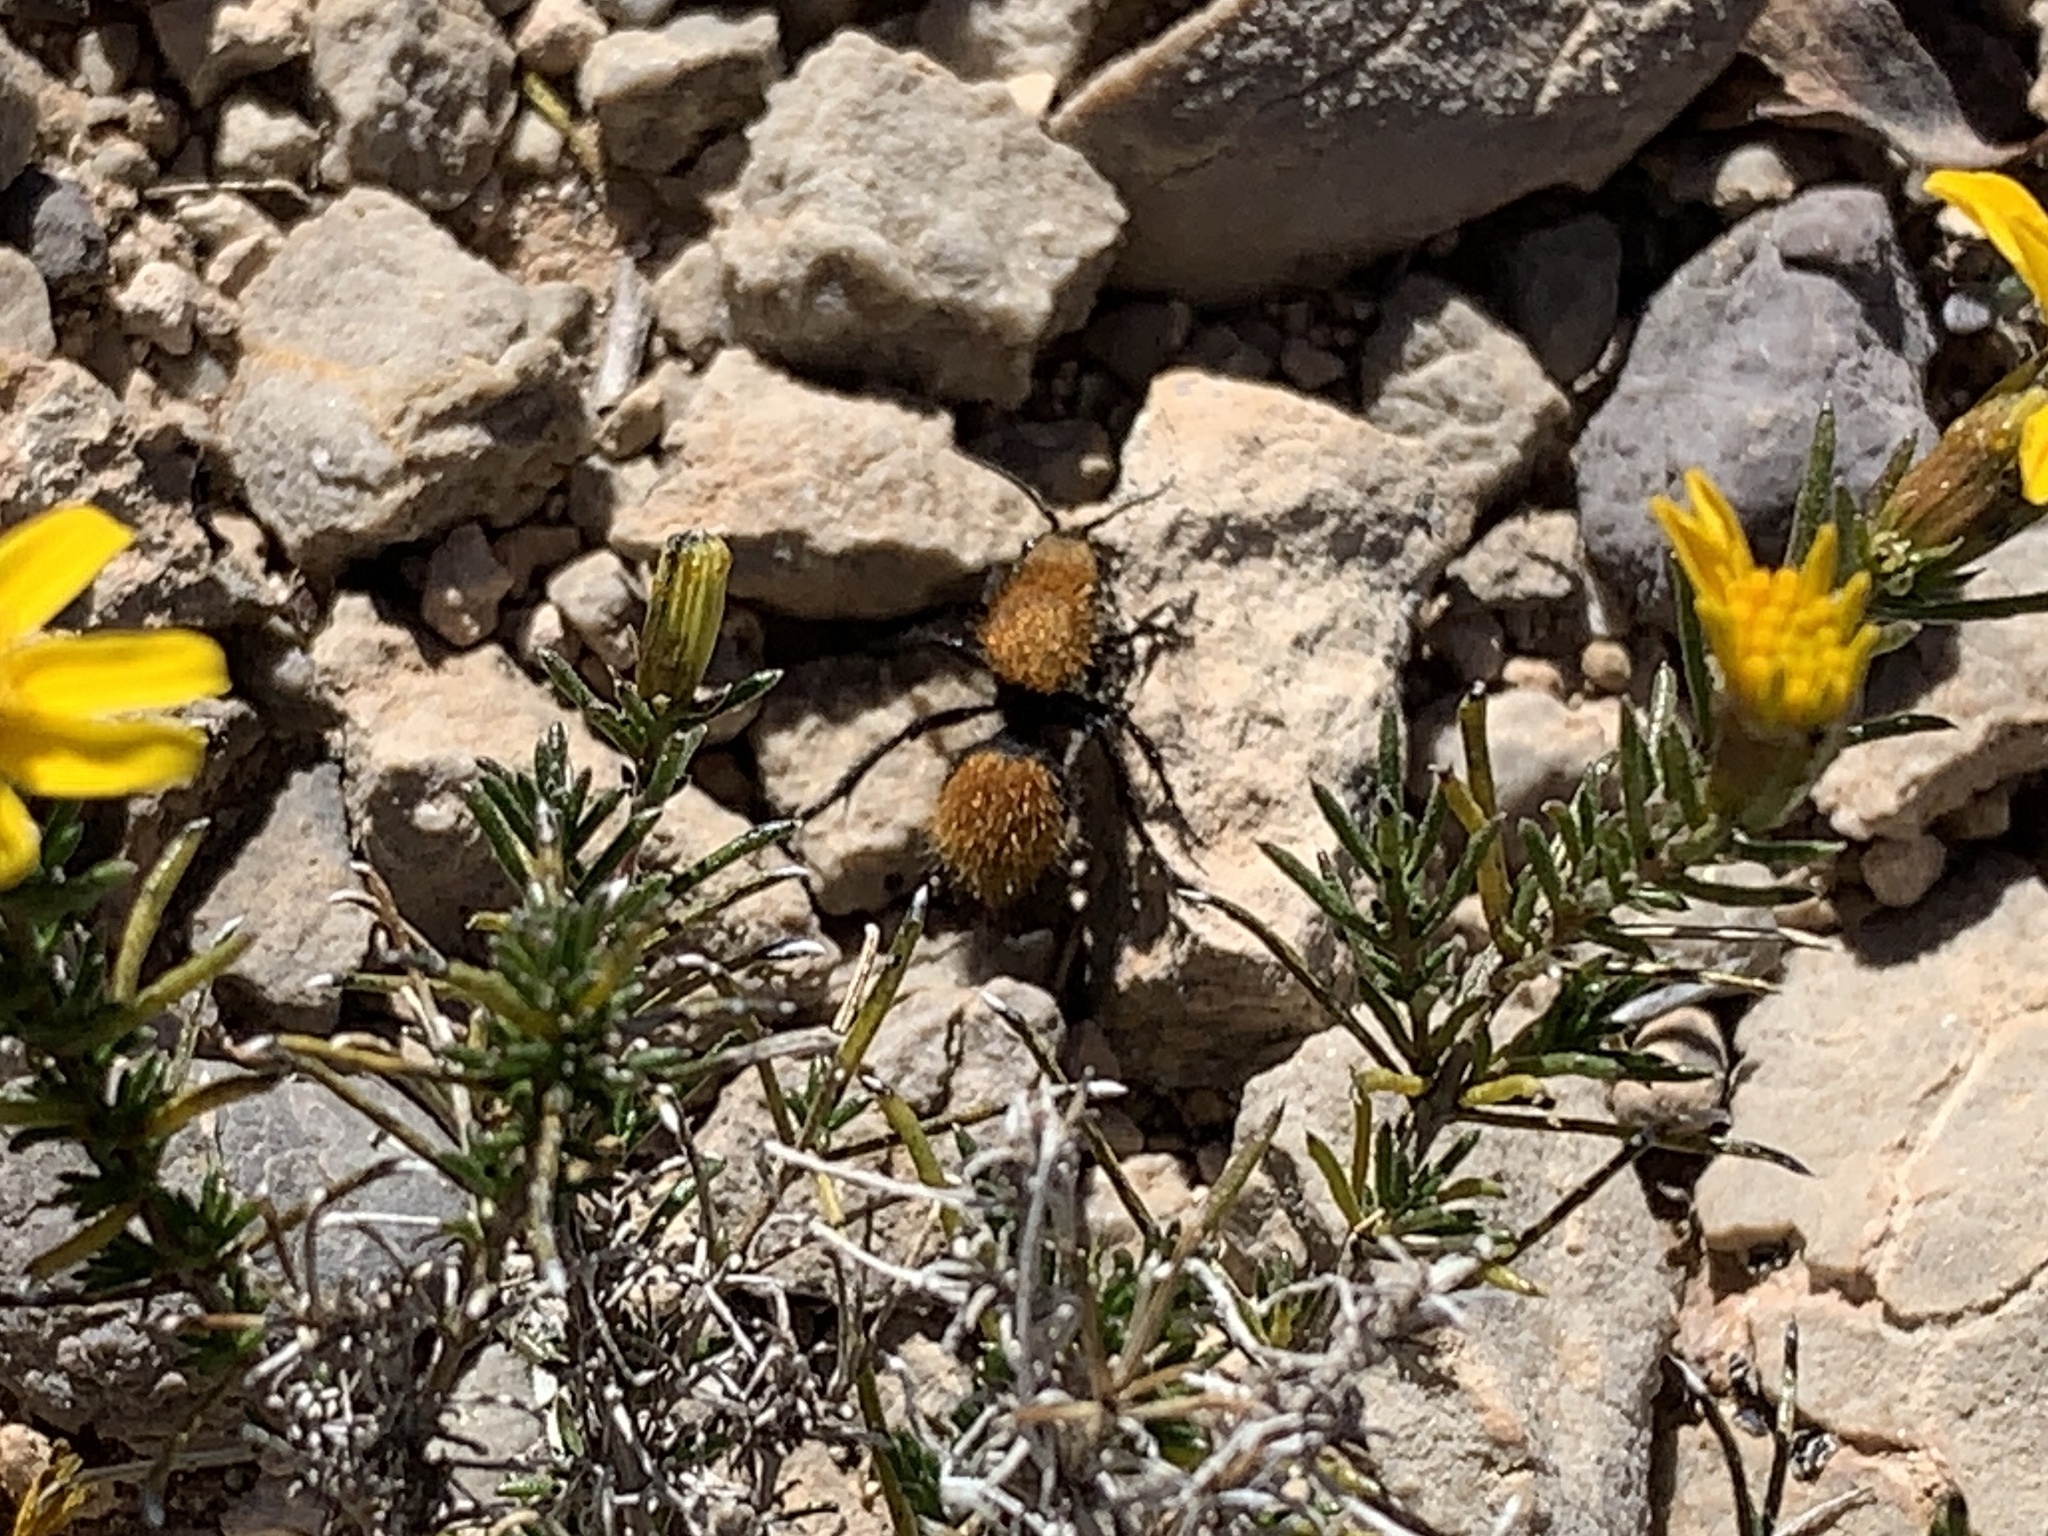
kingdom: Animalia
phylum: Arthropoda
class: Insecta
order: Hymenoptera
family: Mutillidae
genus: Dasymutilla
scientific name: Dasymutilla vestita
